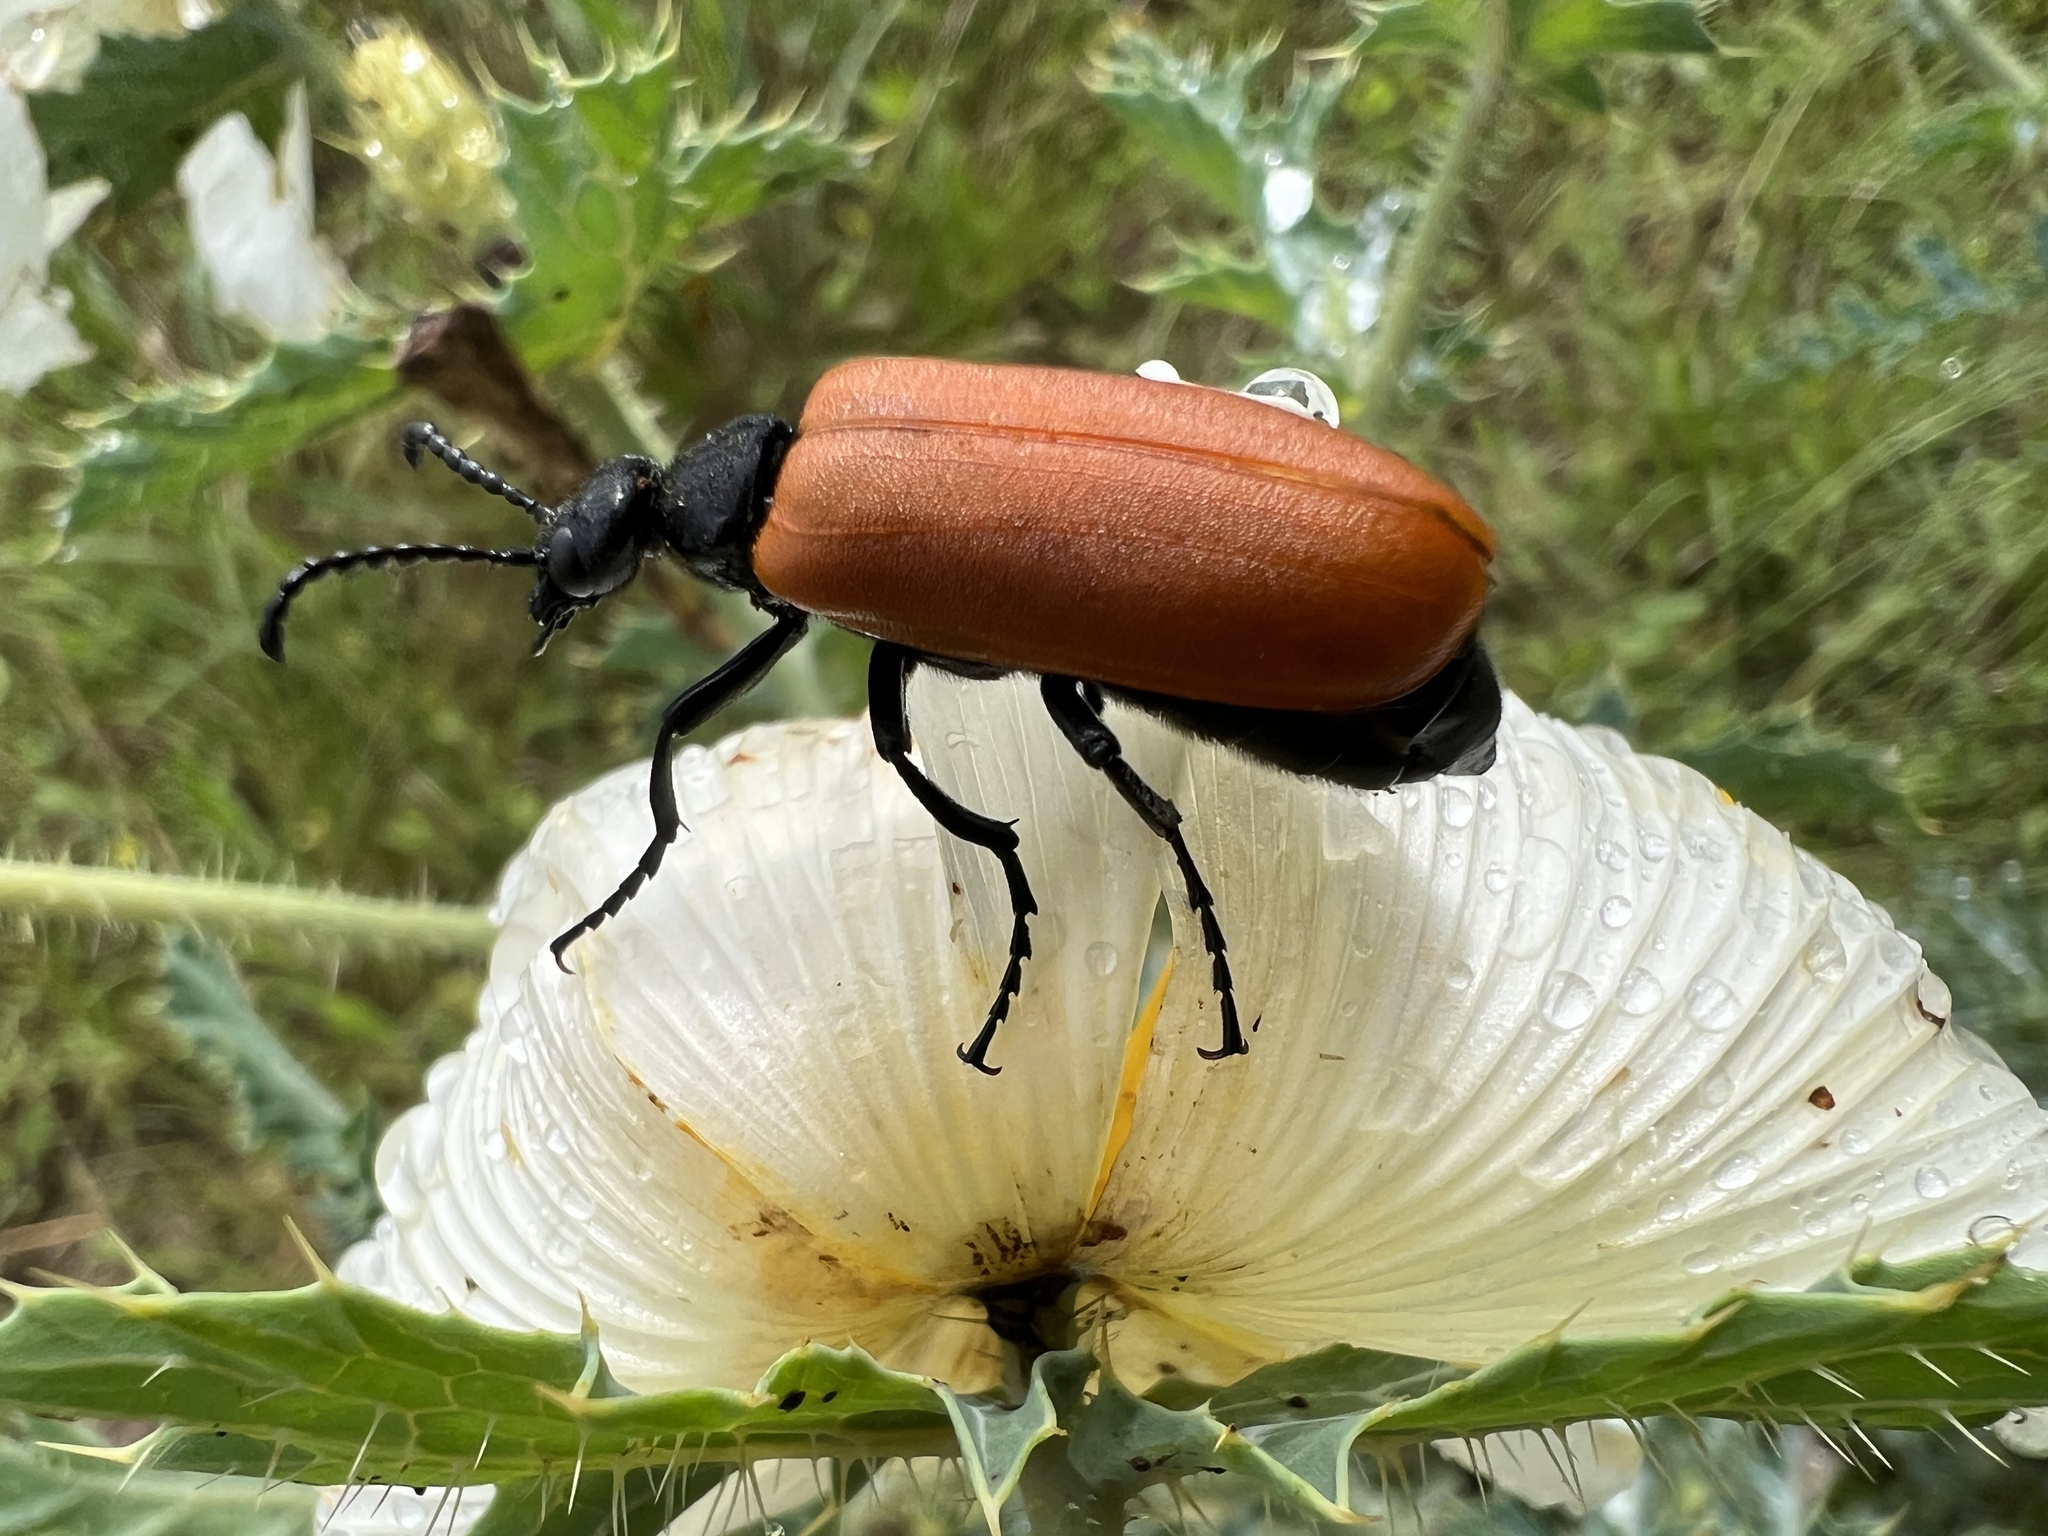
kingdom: Animalia
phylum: Arthropoda
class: Insecta
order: Coleoptera
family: Meloidae
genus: Lytta
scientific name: Lytta fulvipennis
